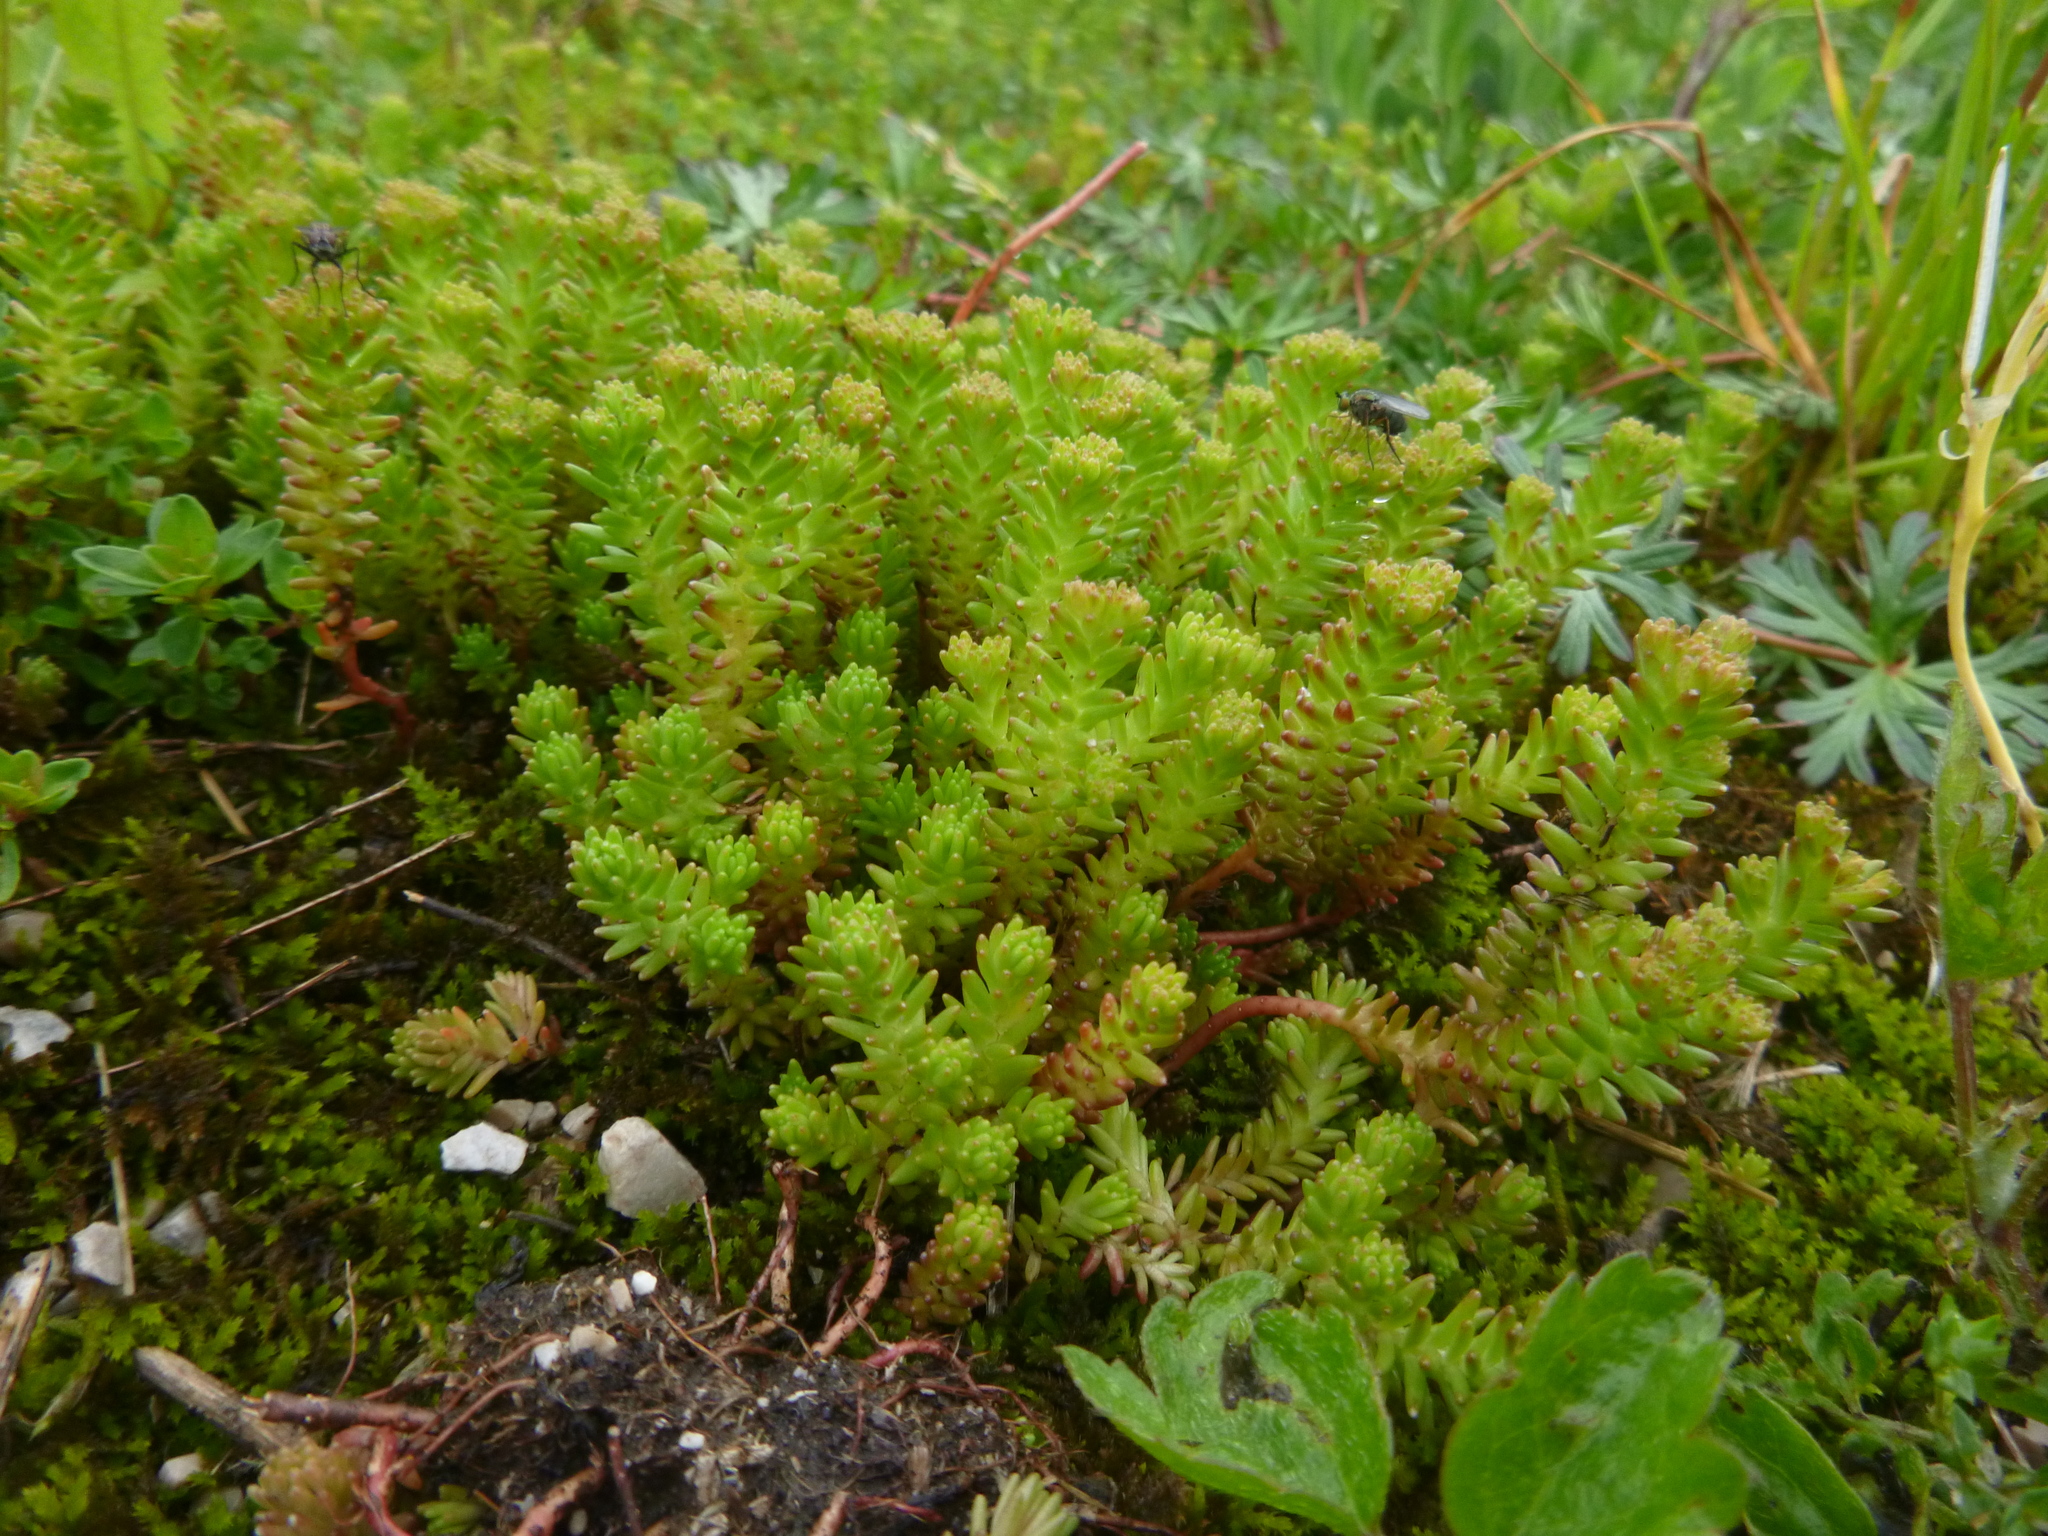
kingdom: Plantae
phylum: Tracheophyta
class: Magnoliopsida
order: Saxifragales
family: Crassulaceae
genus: Sedum
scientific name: Sedum sexangulare
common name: Tasteless stonecrop
